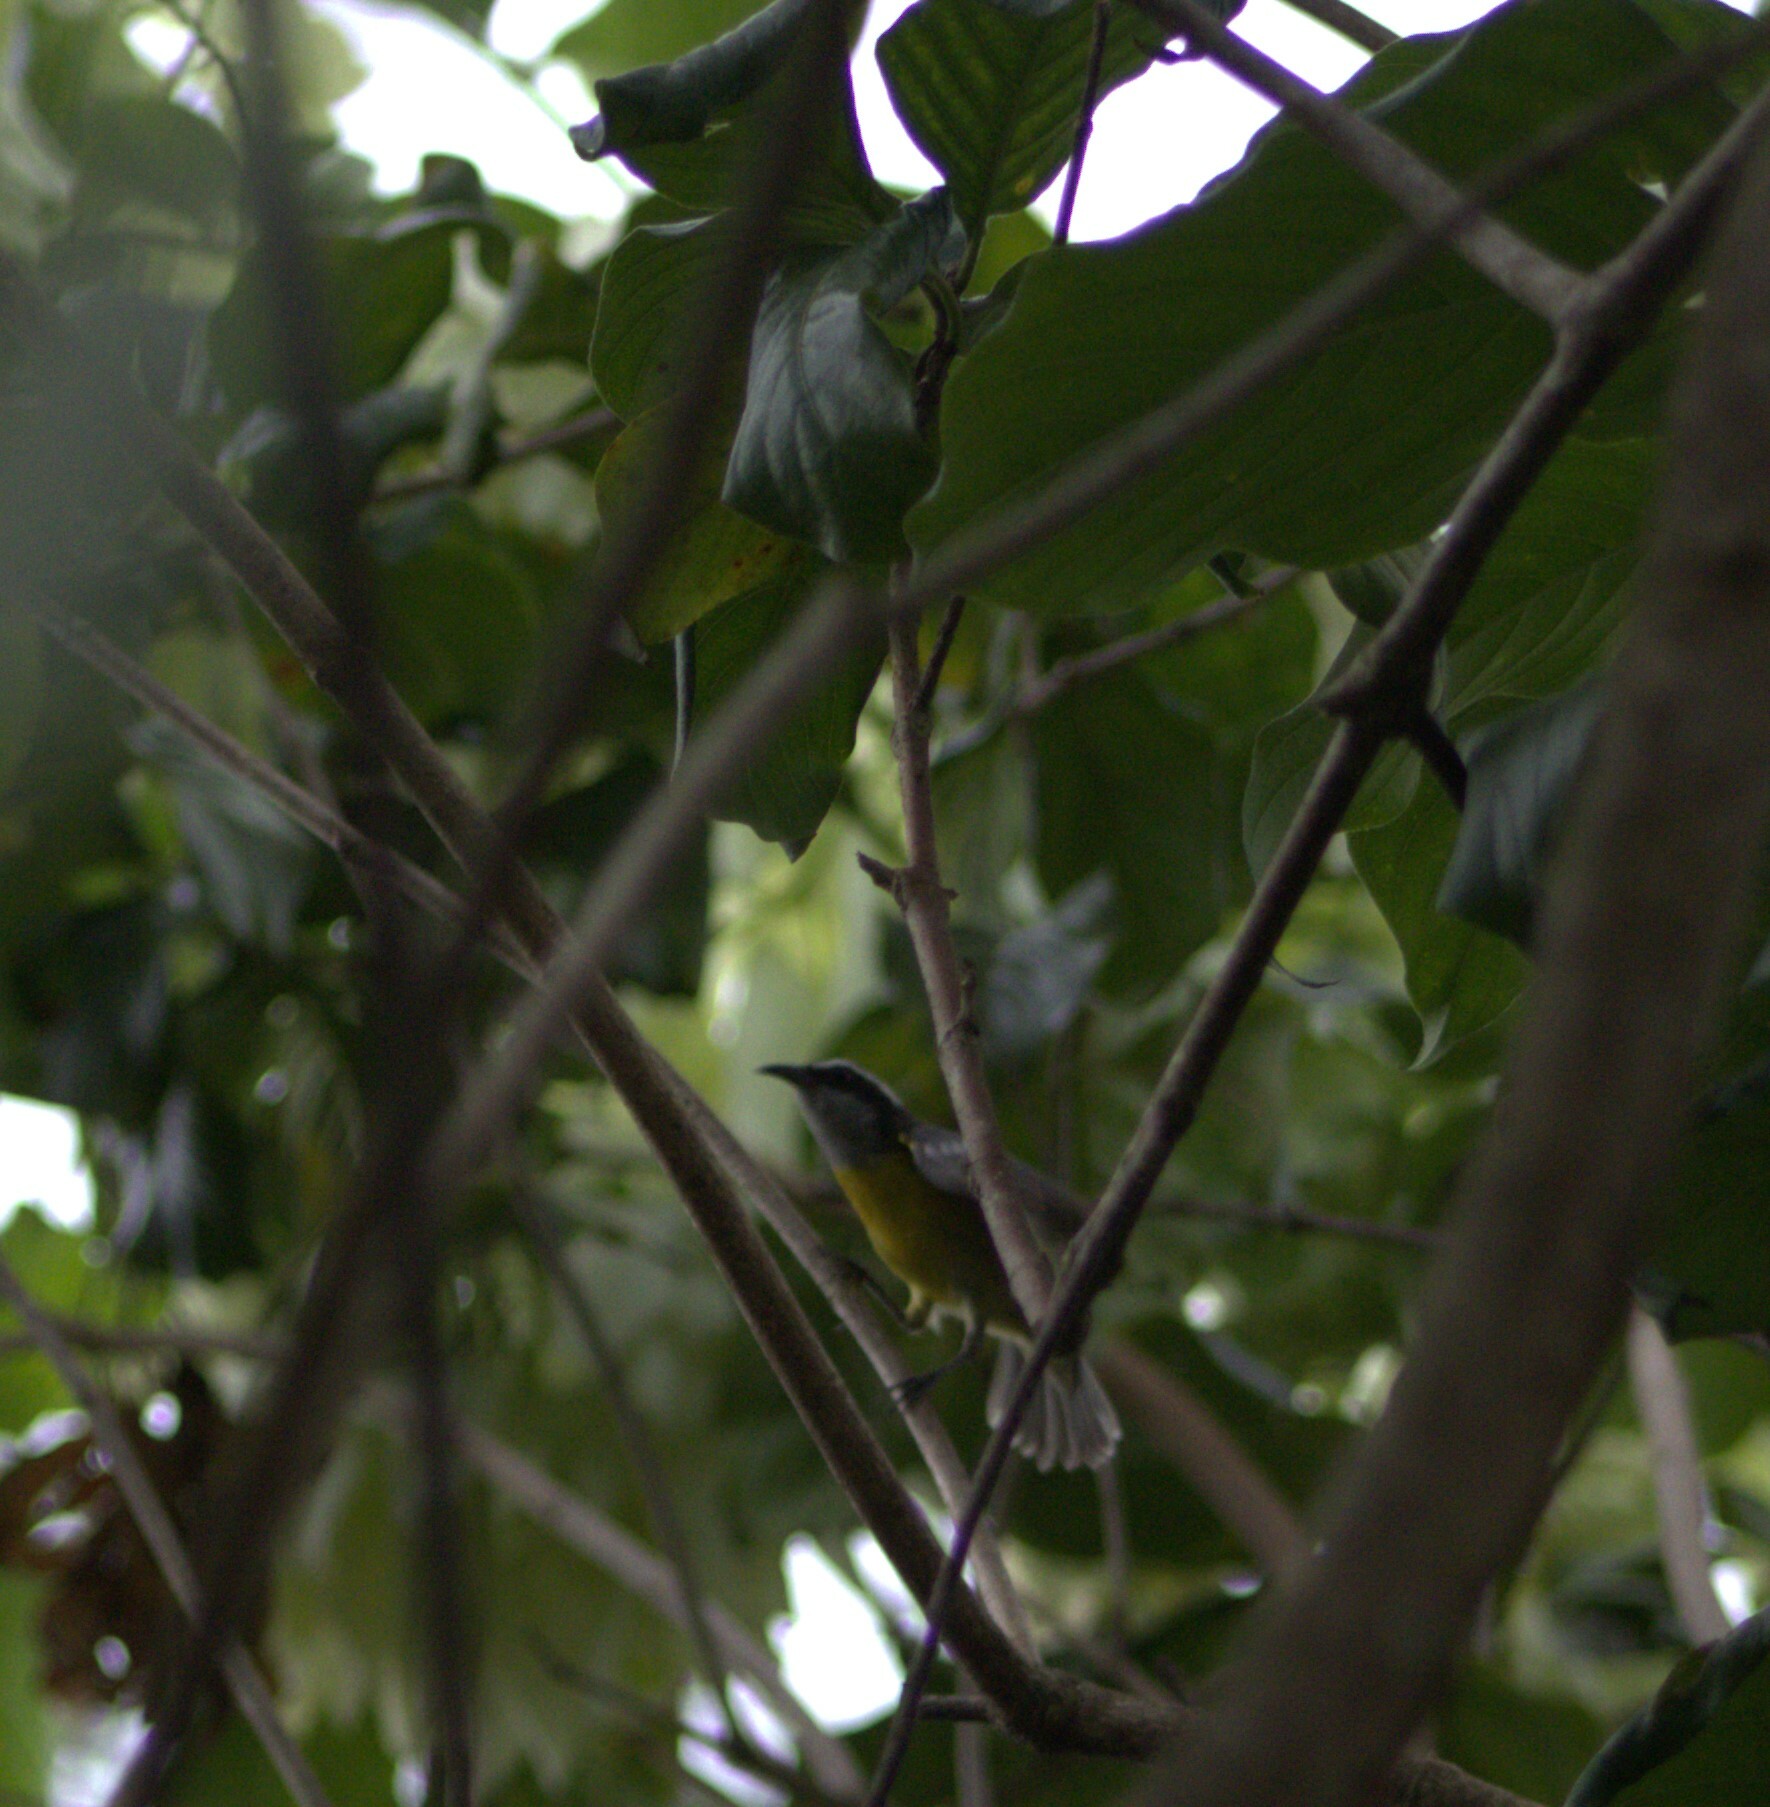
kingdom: Animalia
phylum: Chordata
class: Aves
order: Passeriformes
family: Thraupidae
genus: Coereba
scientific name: Coereba flaveola
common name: Bananaquit
